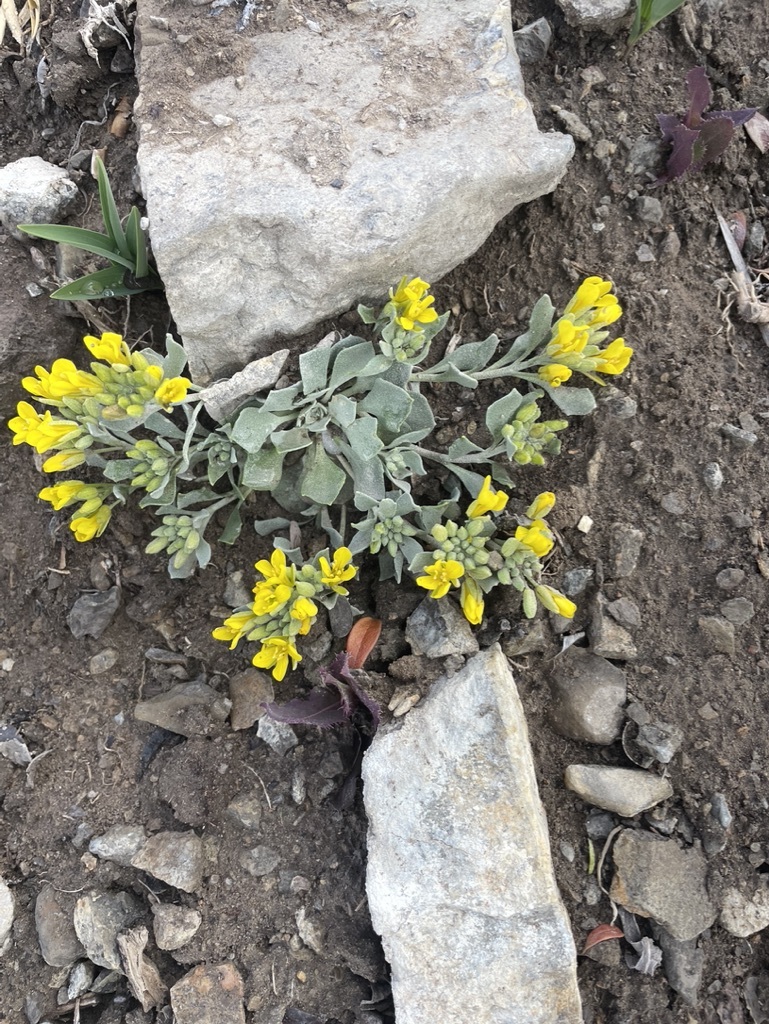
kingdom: Plantae
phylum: Tracheophyta
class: Magnoliopsida
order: Brassicales
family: Brassicaceae
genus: Physaria
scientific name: Physaria didymocarpa
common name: Common twinpod
